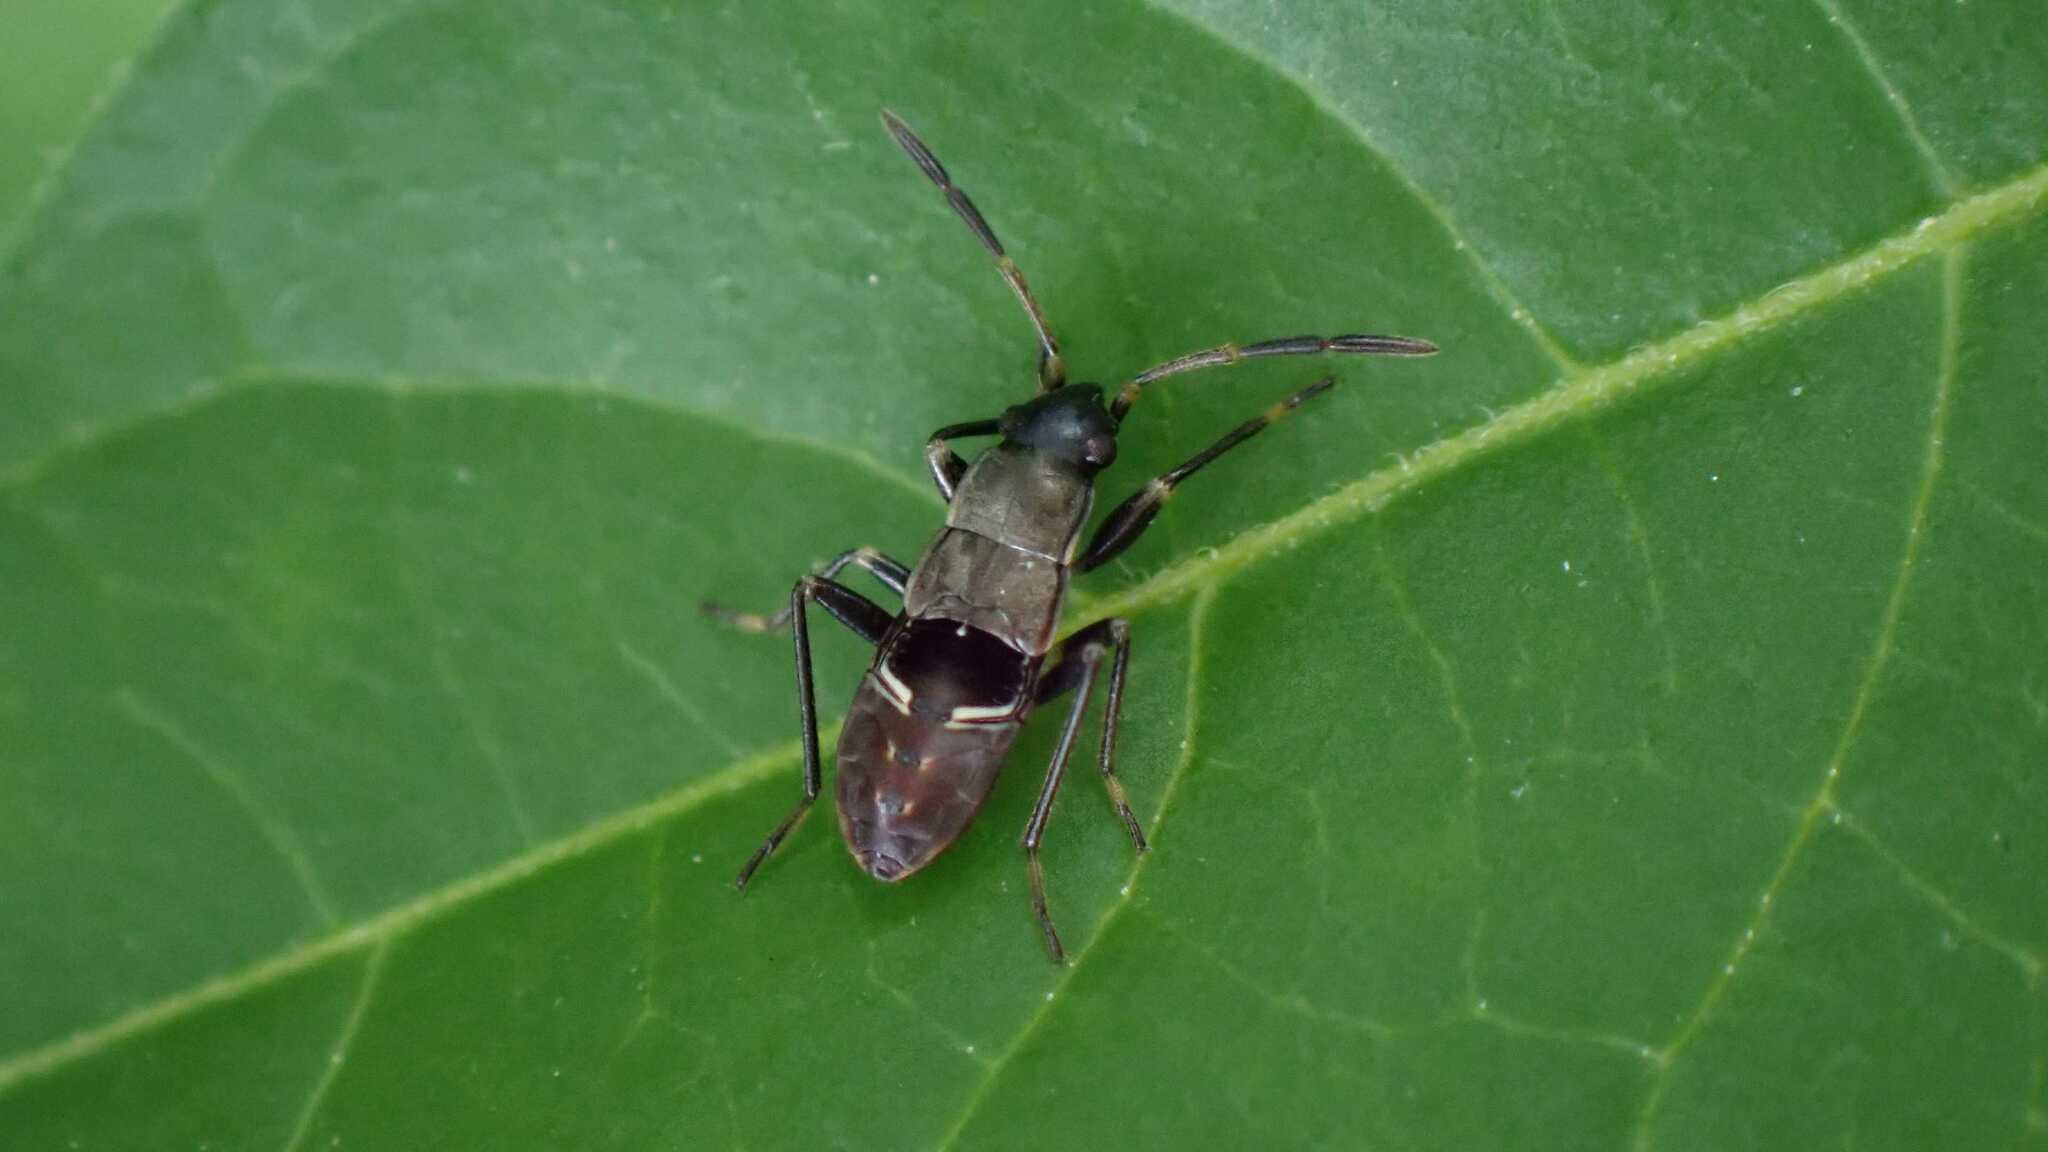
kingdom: Animalia
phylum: Arthropoda
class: Insecta
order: Hemiptera
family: Rhyparochromidae
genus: Rhyparochromus
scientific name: Rhyparochromus vulgaris
